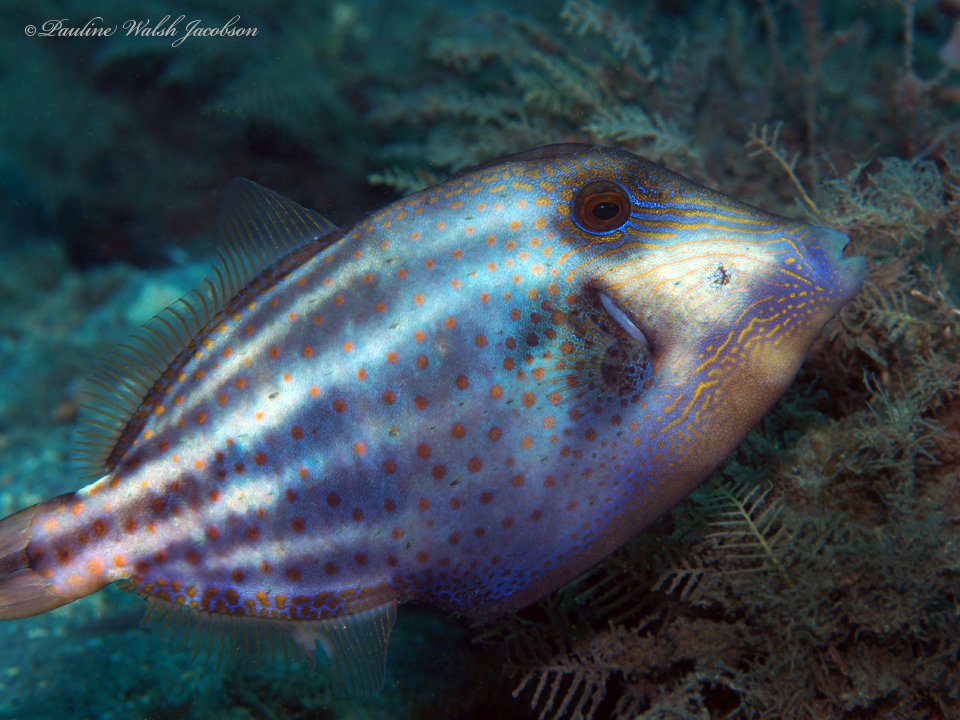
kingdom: Animalia
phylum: Chordata
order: Tetraodontiformes
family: Monacanthidae
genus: Cantherhines
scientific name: Cantherhines pullus
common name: Orangespotted filefish
